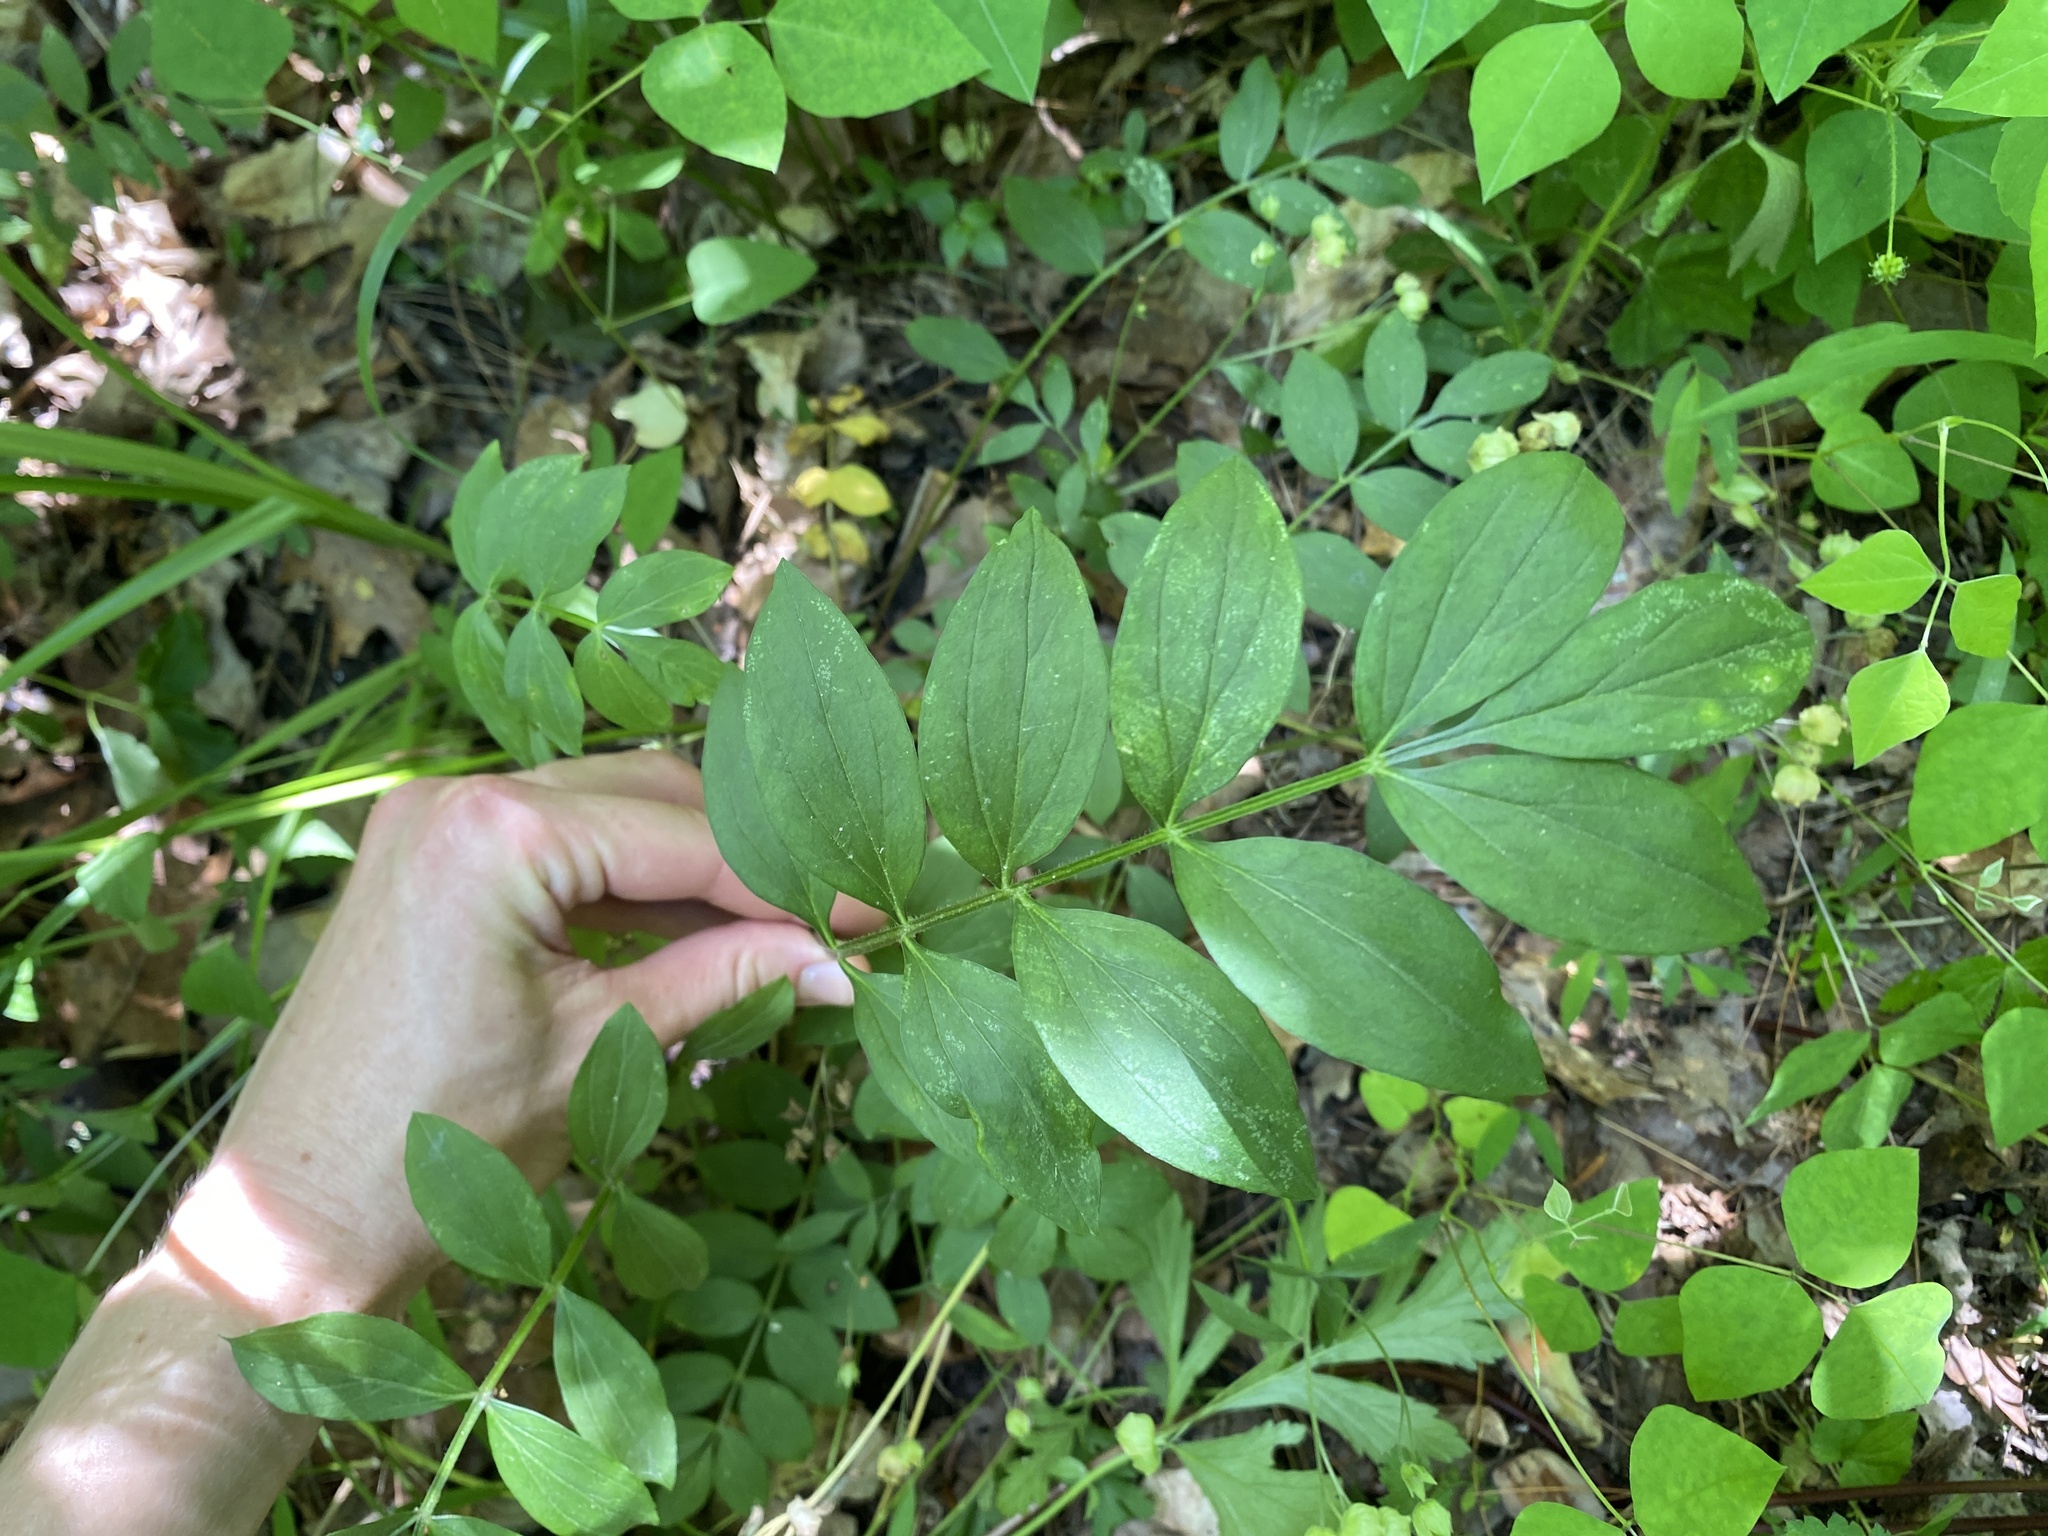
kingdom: Plantae
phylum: Tracheophyta
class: Magnoliopsida
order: Ericales
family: Polemoniaceae
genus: Polemonium
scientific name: Polemonium reptans
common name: Creeping jacob's-ladder
